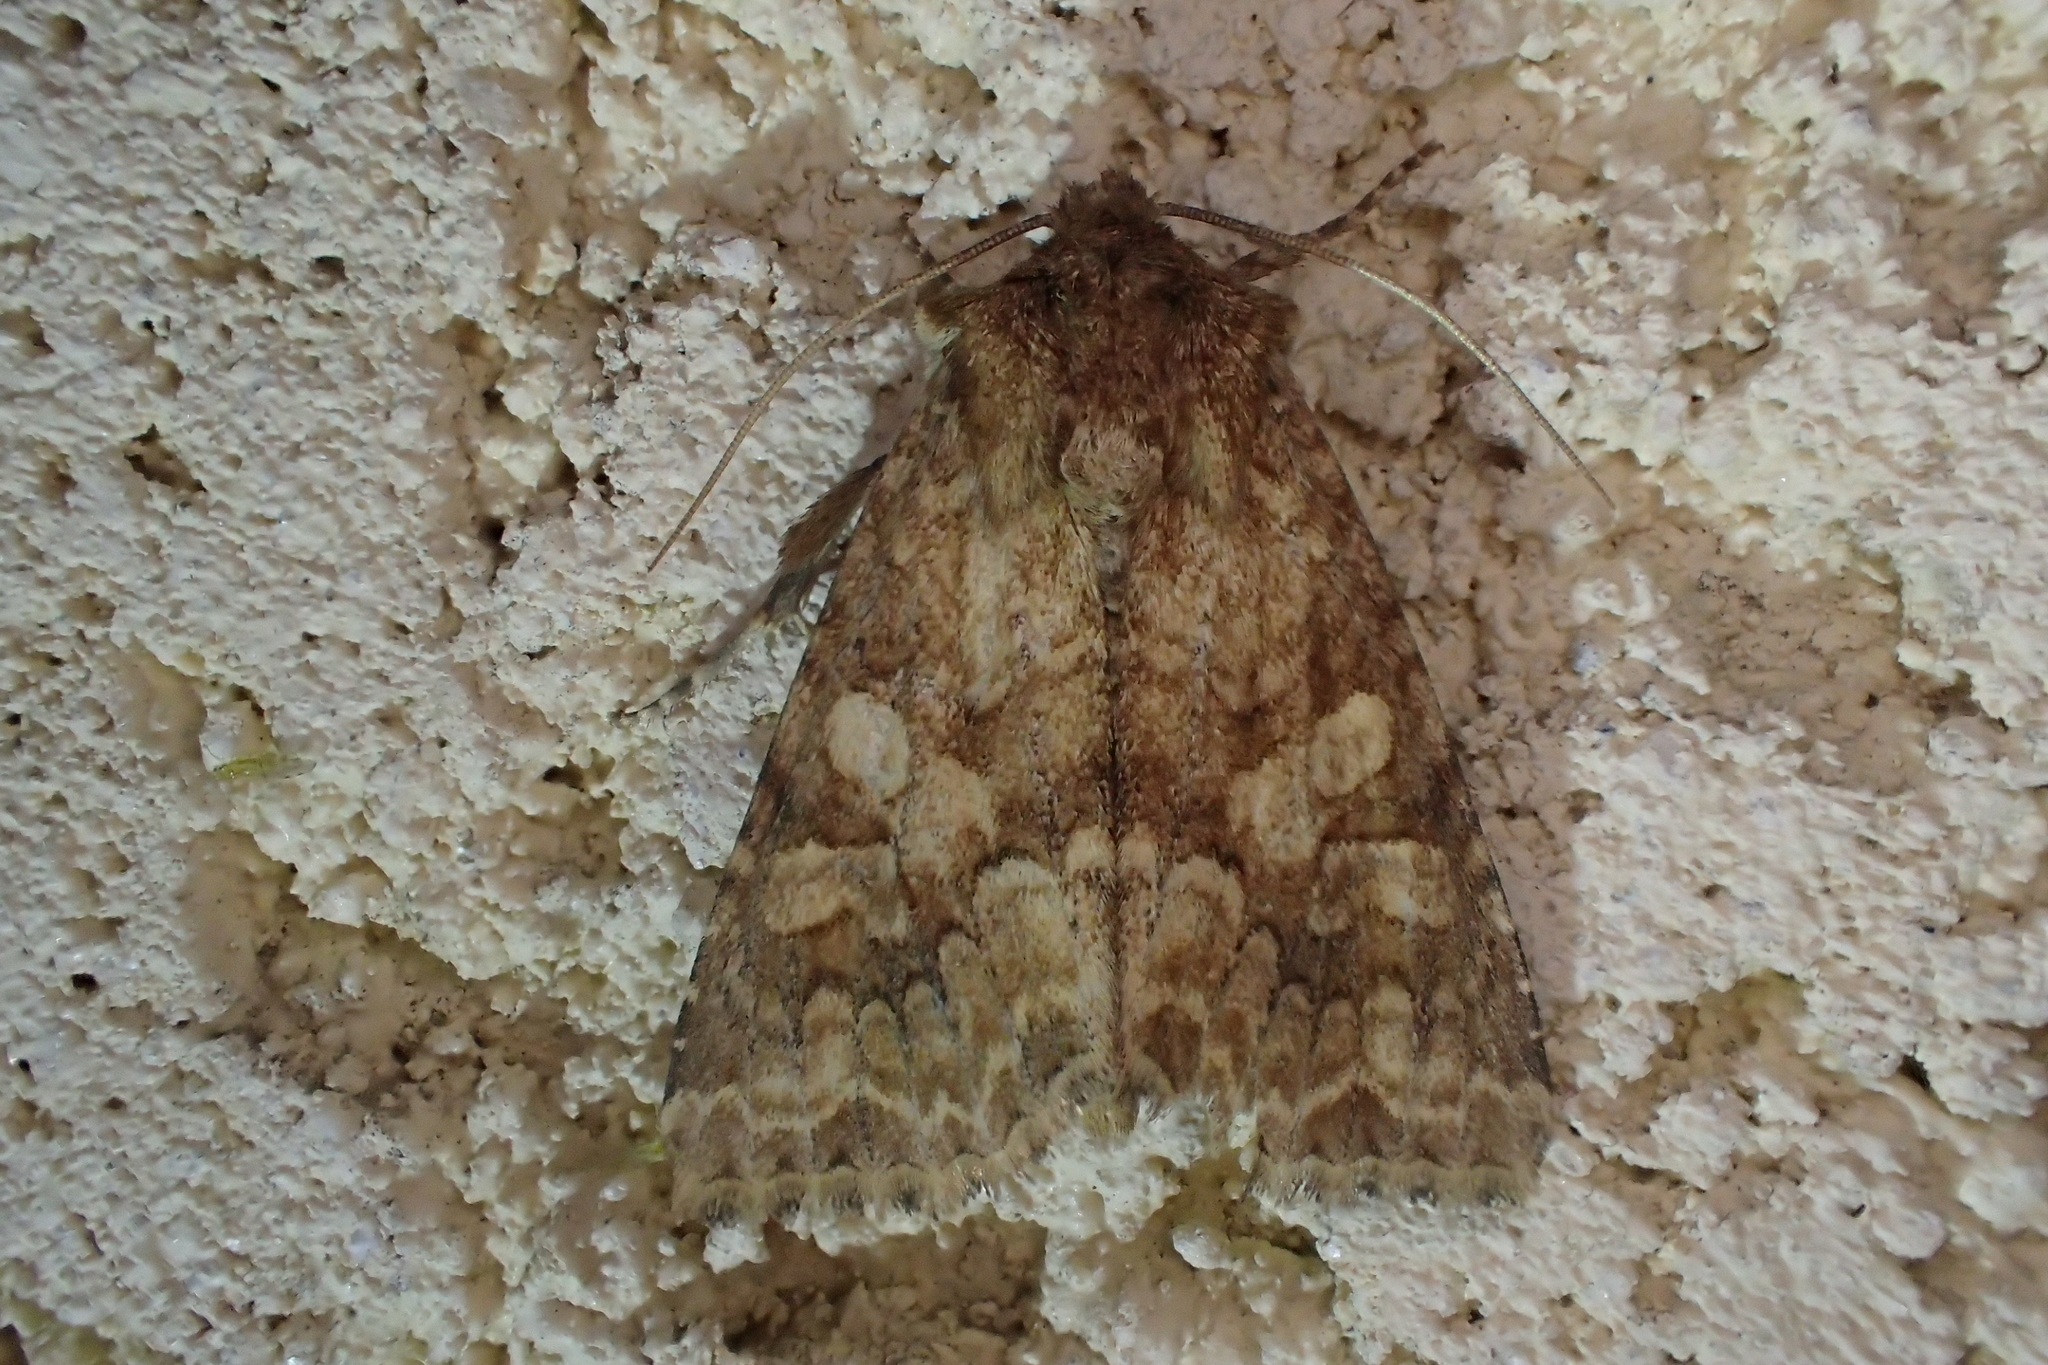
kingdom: Animalia
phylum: Arthropoda
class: Insecta
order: Lepidoptera
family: Noctuidae
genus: Conisania
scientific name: Conisania luteago
